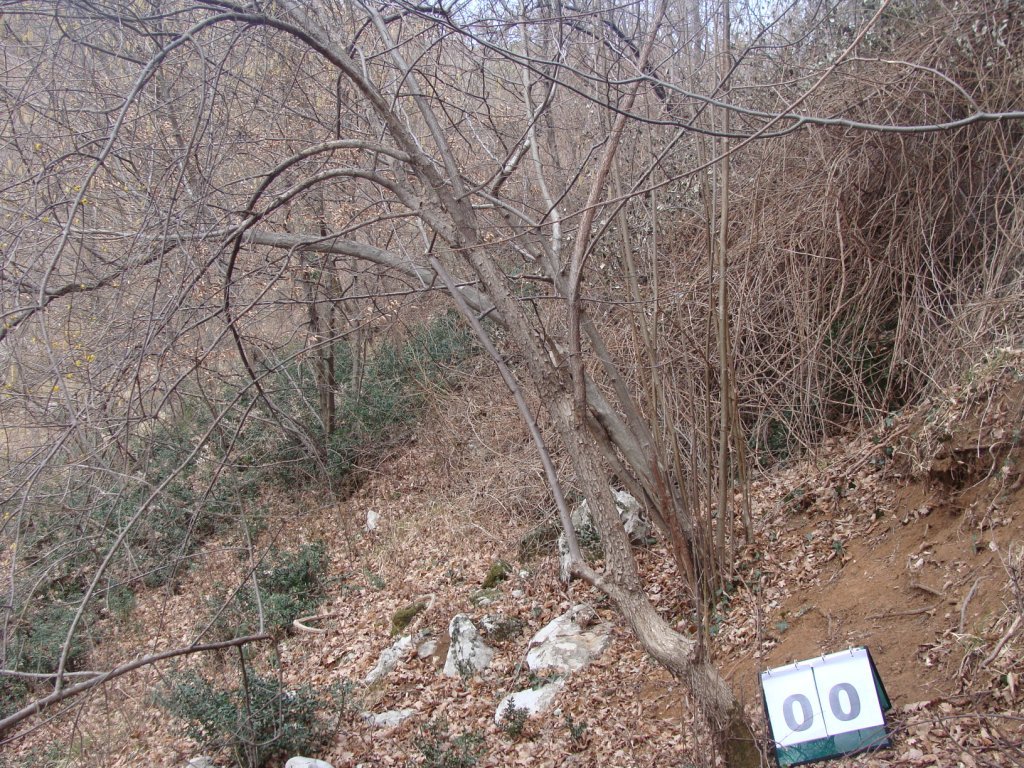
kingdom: Plantae
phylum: Tracheophyta
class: Magnoliopsida
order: Cornales
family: Cornaceae
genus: Cornus
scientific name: Cornus mas
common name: Cornelian-cherry
